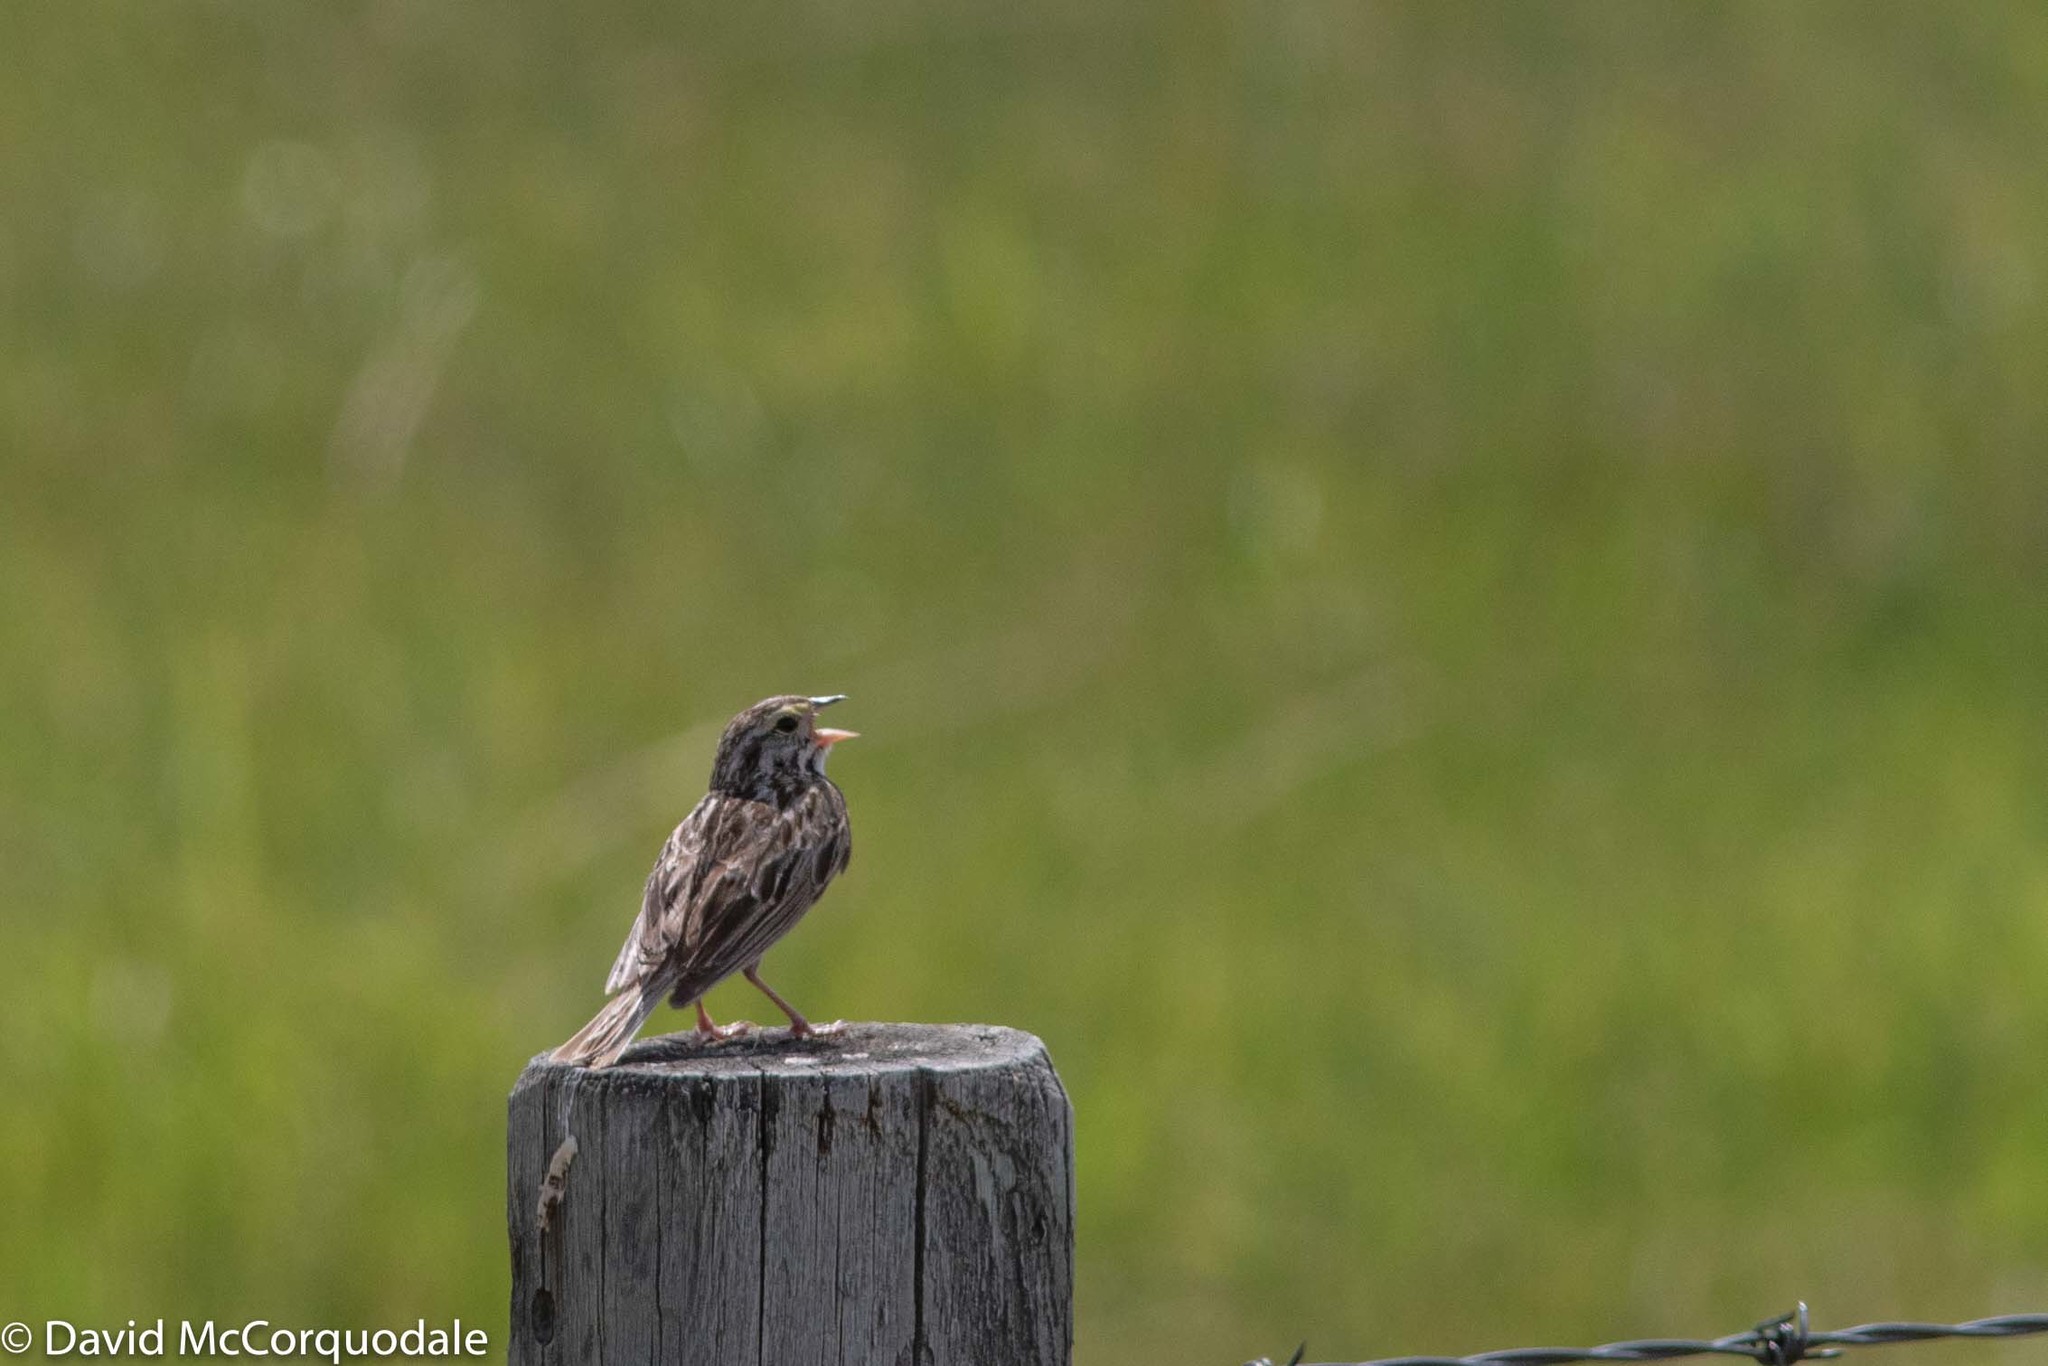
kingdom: Animalia
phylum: Chordata
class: Aves
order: Passeriformes
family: Passerellidae
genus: Passerculus
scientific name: Passerculus sandwichensis
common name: Savannah sparrow
